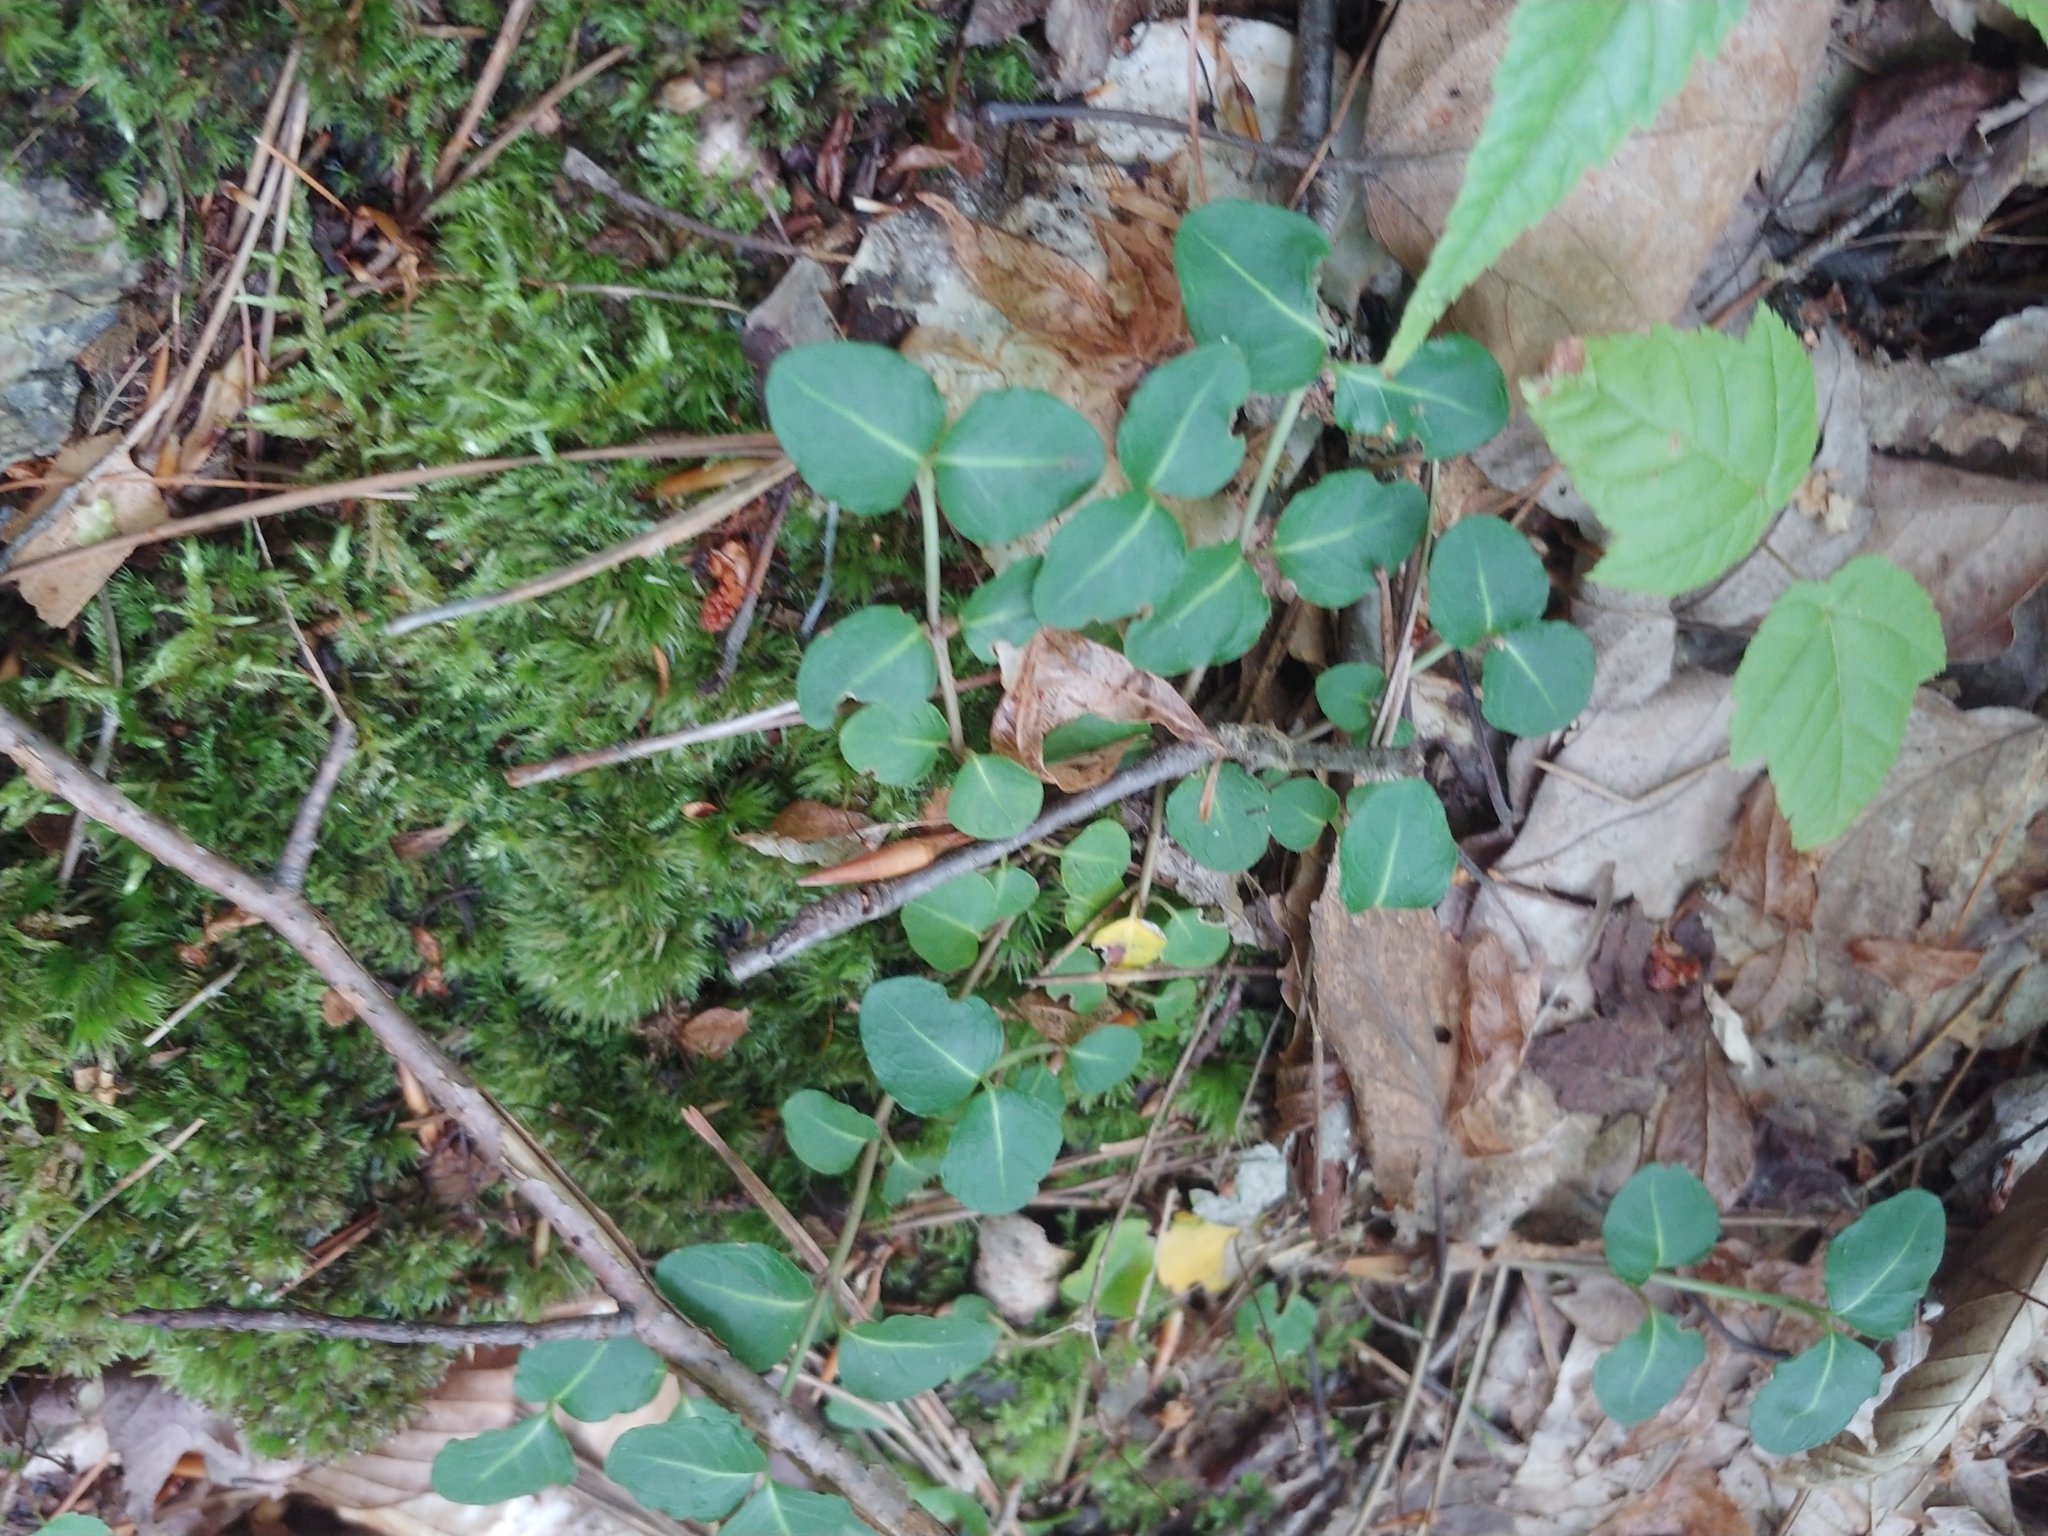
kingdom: Plantae
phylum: Tracheophyta
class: Magnoliopsida
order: Gentianales
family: Rubiaceae
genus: Mitchella
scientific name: Mitchella repens
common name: Partridge-berry
